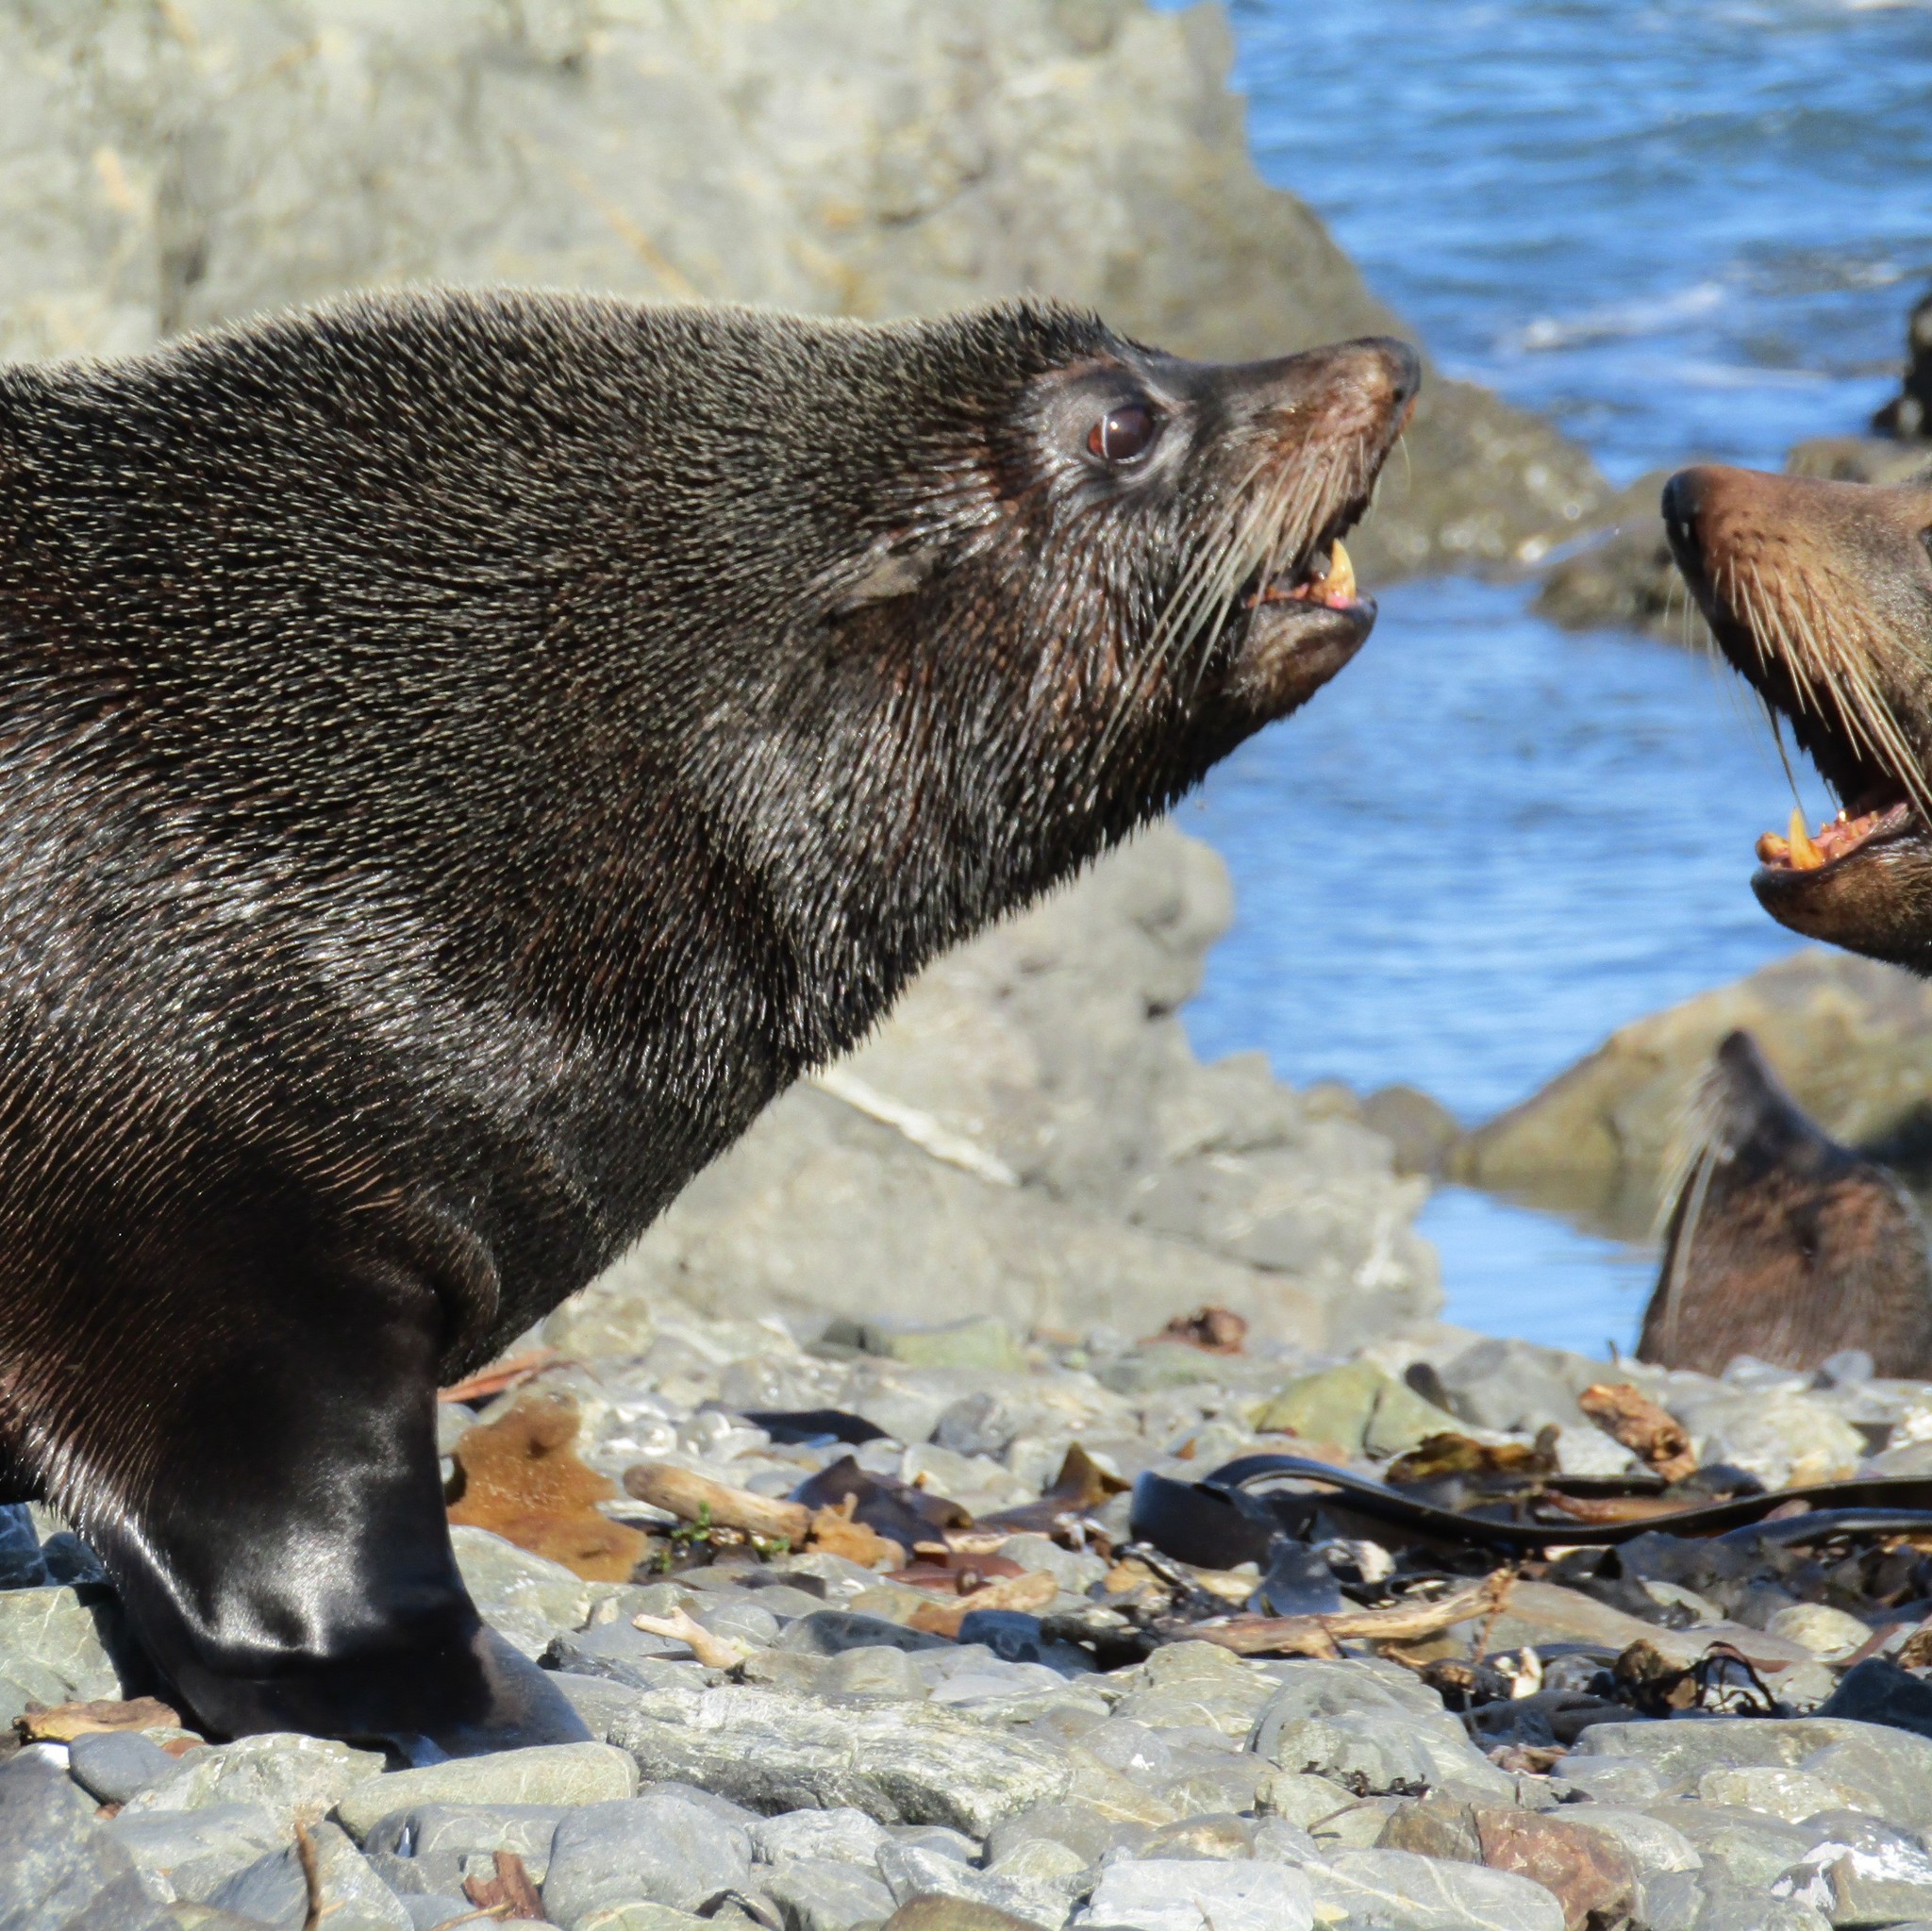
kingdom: Animalia
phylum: Chordata
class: Mammalia
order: Carnivora
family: Otariidae
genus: Arctocephalus
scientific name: Arctocephalus forsteri
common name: New zealand fur seal
